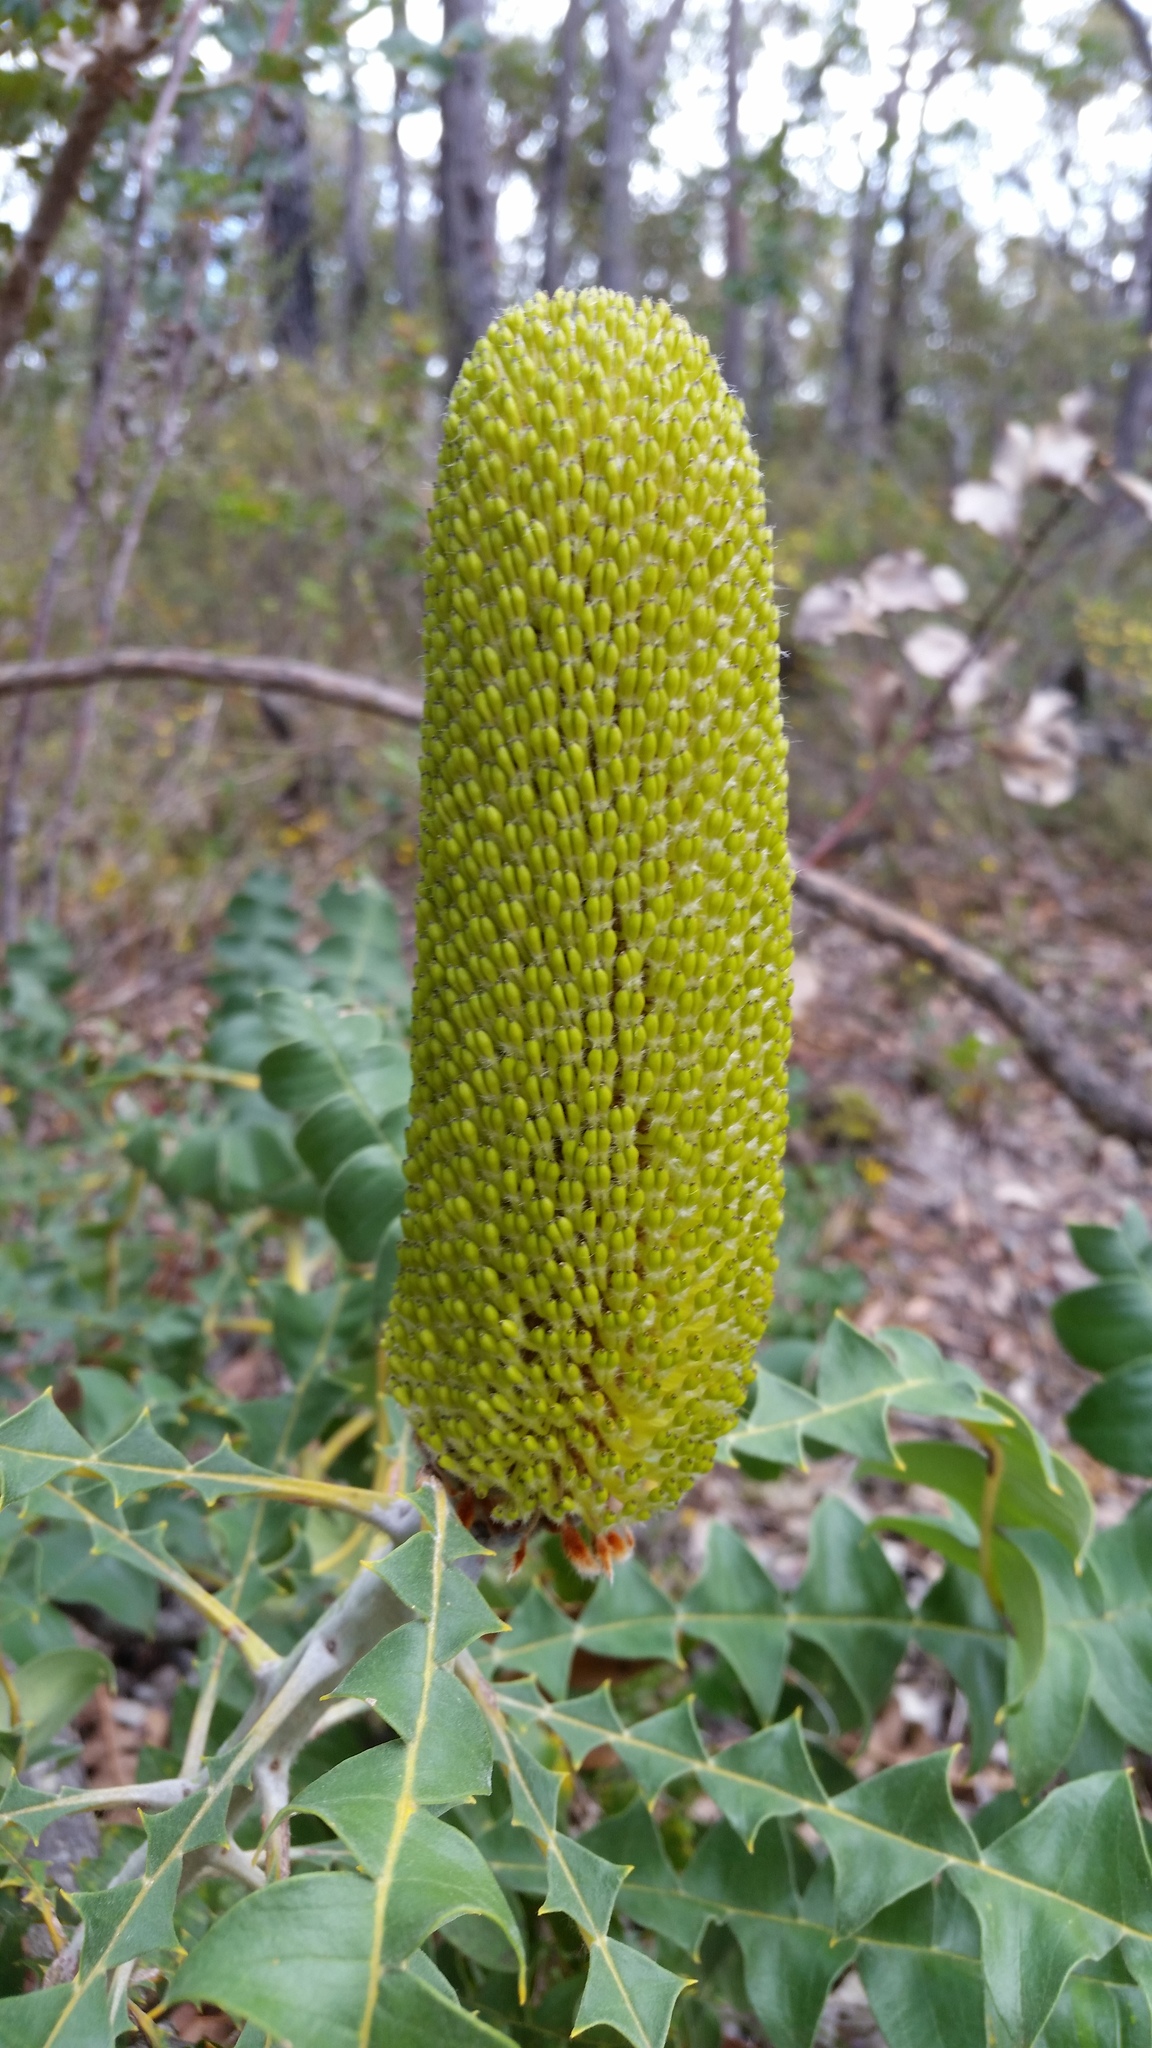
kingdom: Plantae
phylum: Tracheophyta
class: Magnoliopsida
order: Proteales
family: Proteaceae
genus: Banksia
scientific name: Banksia grandis
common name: Giant banksia
